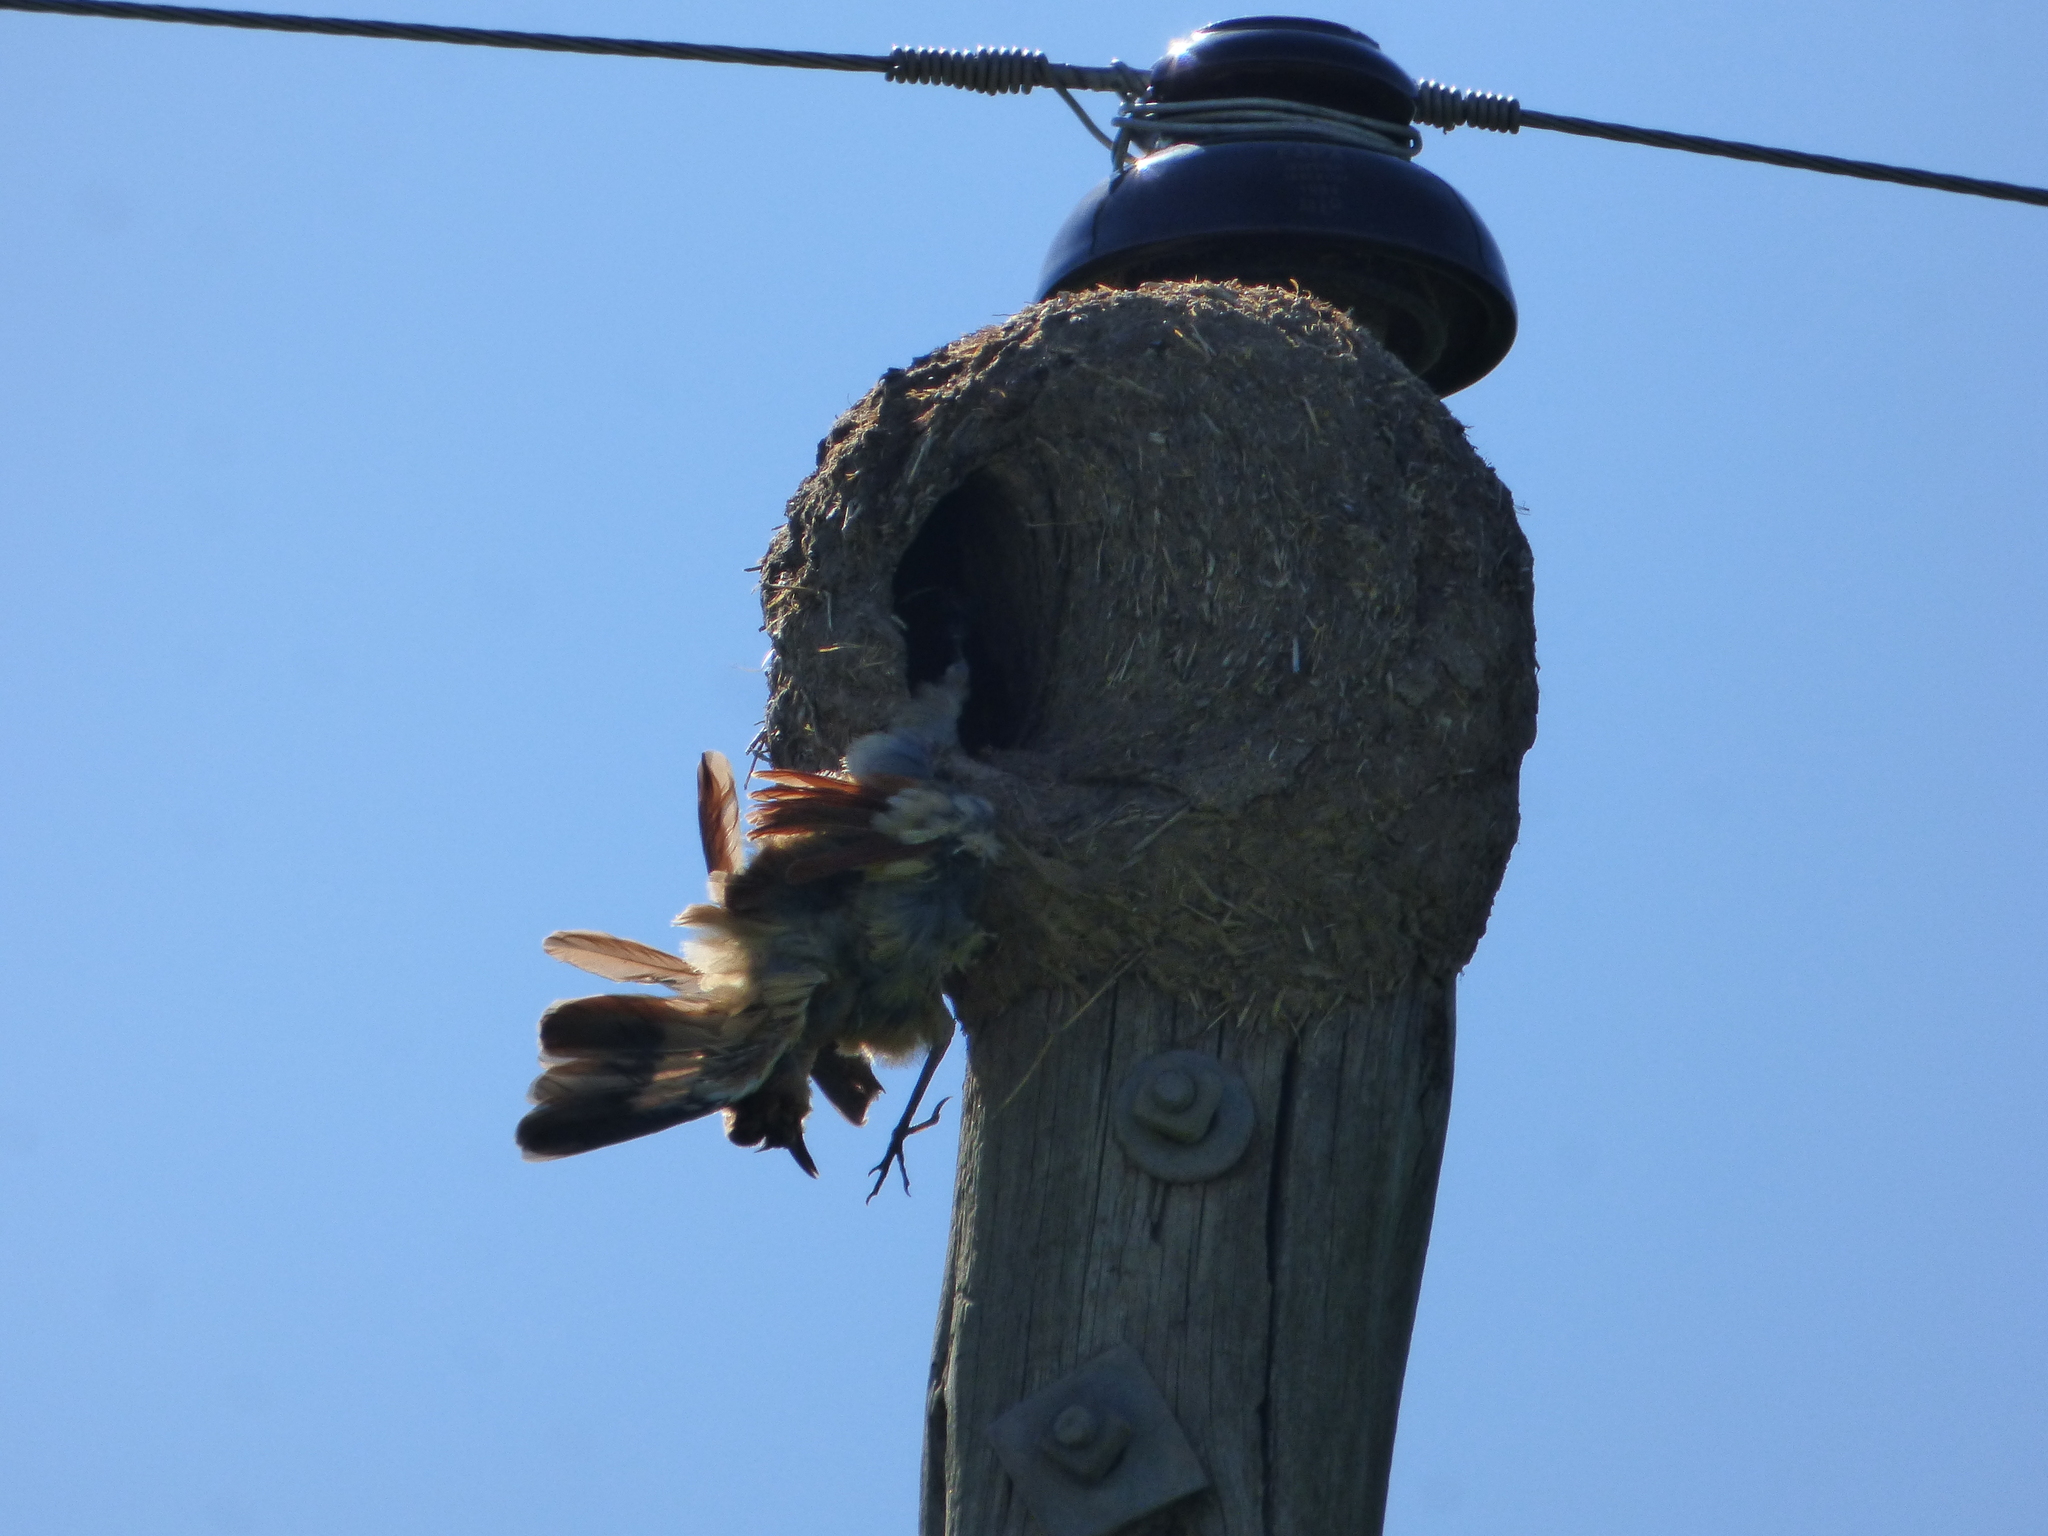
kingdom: Animalia
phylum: Chordata
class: Aves
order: Passeriformes
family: Furnariidae
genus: Furnarius
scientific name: Furnarius rufus
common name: Rufous hornero
